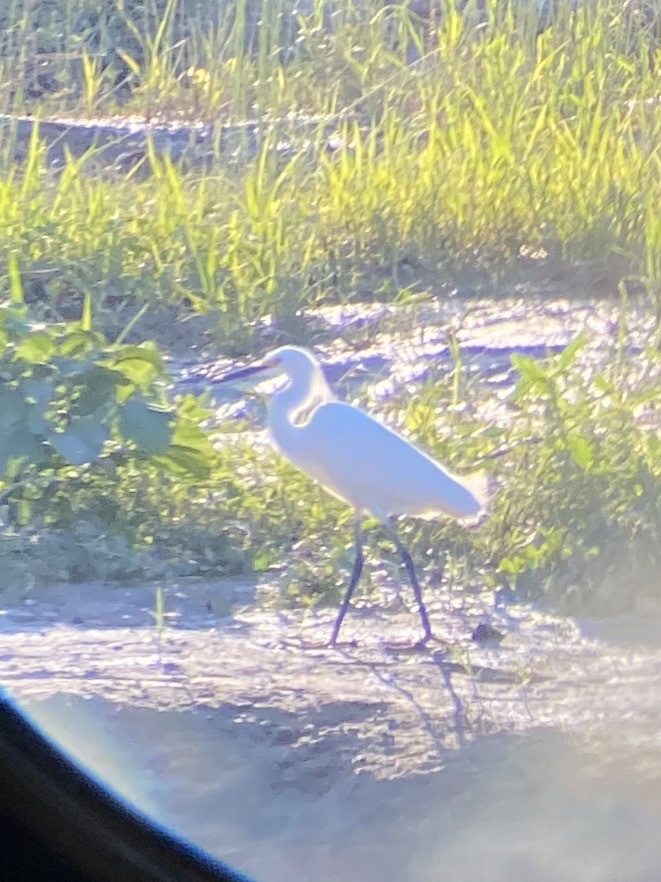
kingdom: Animalia
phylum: Chordata
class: Aves
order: Pelecaniformes
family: Ardeidae
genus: Egretta
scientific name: Egretta thula
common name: Snowy egret
